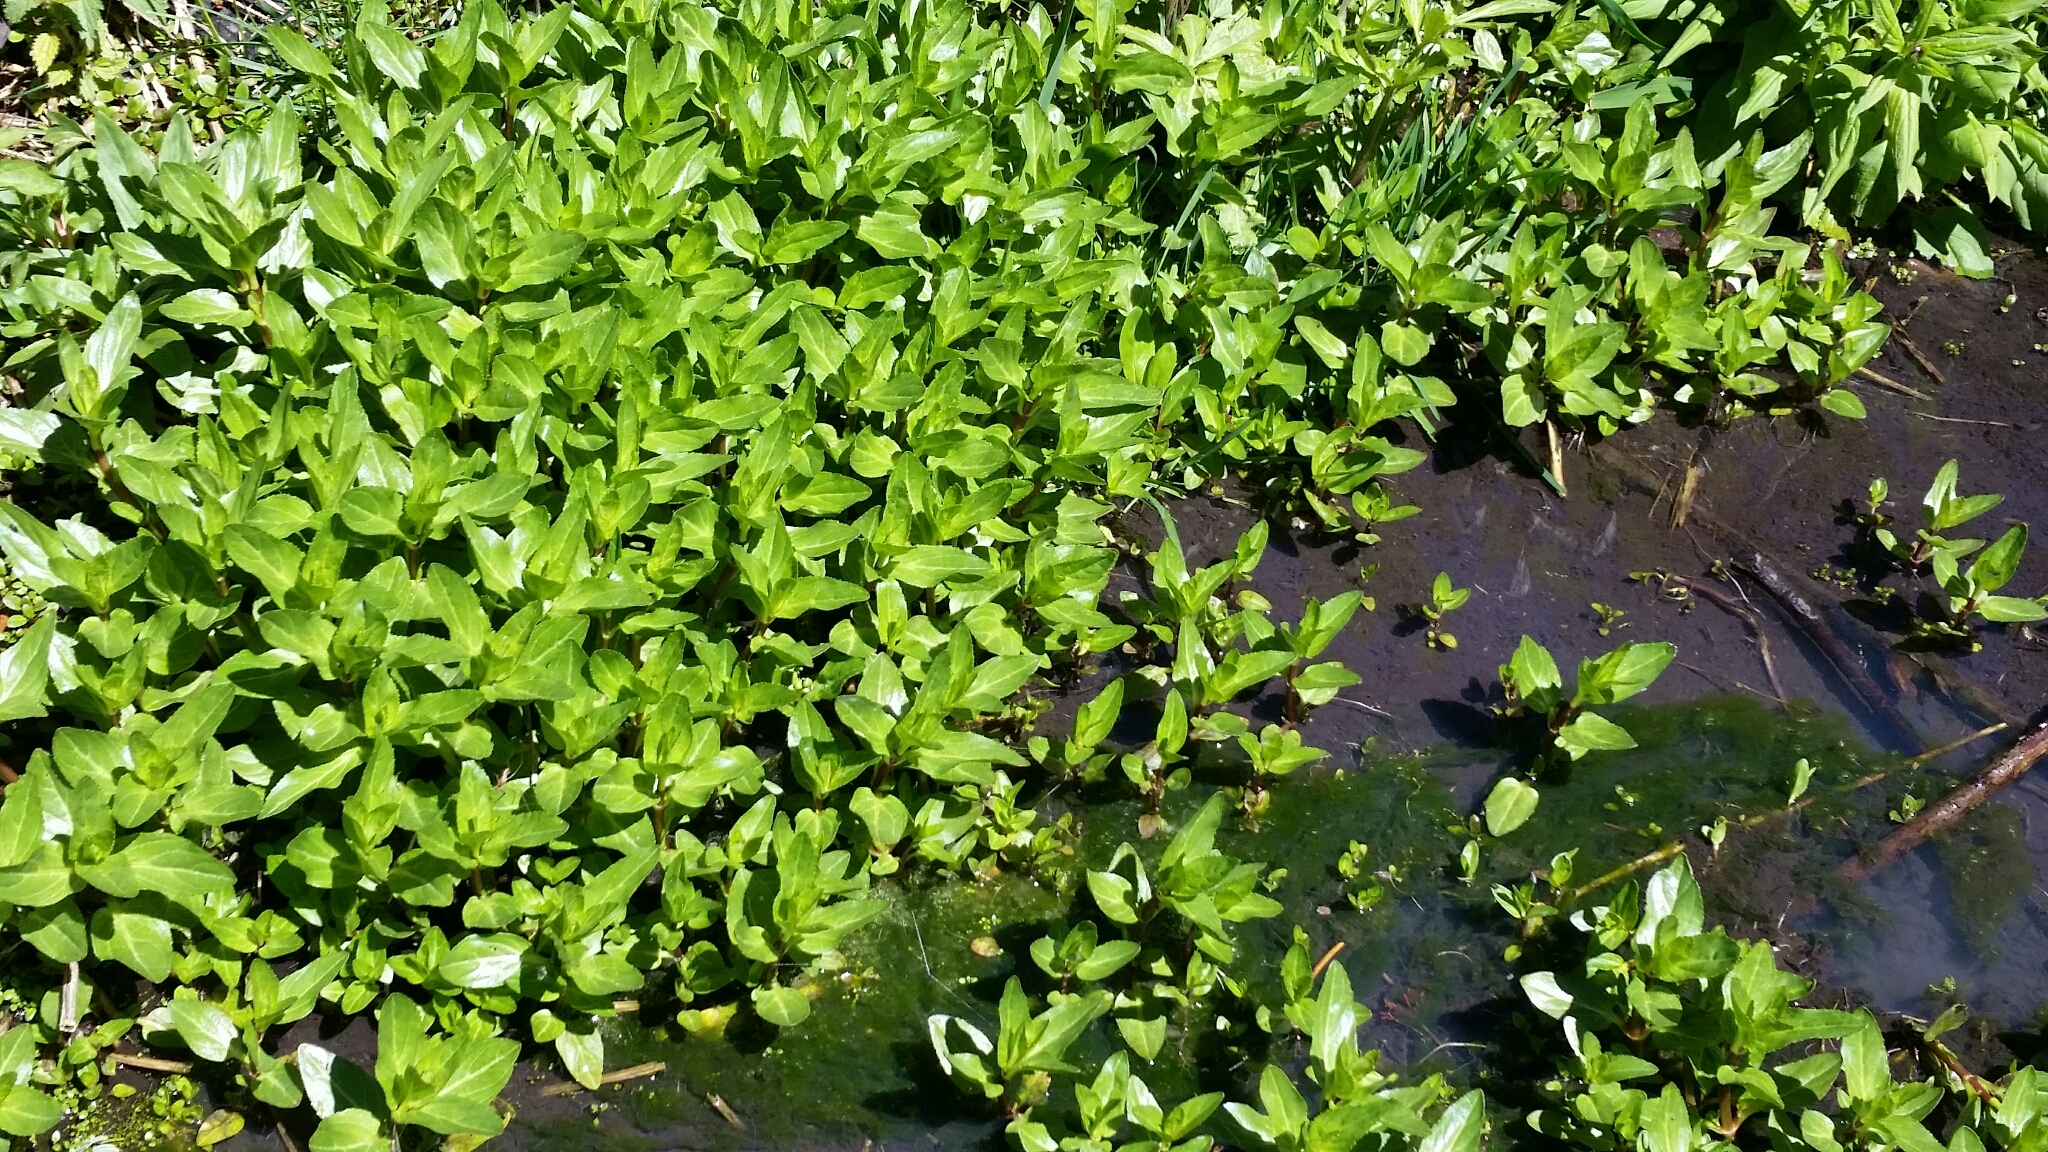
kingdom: Plantae
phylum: Tracheophyta
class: Magnoliopsida
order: Lamiales
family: Plantaginaceae
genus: Veronica
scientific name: Veronica americana
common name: American brooklime
